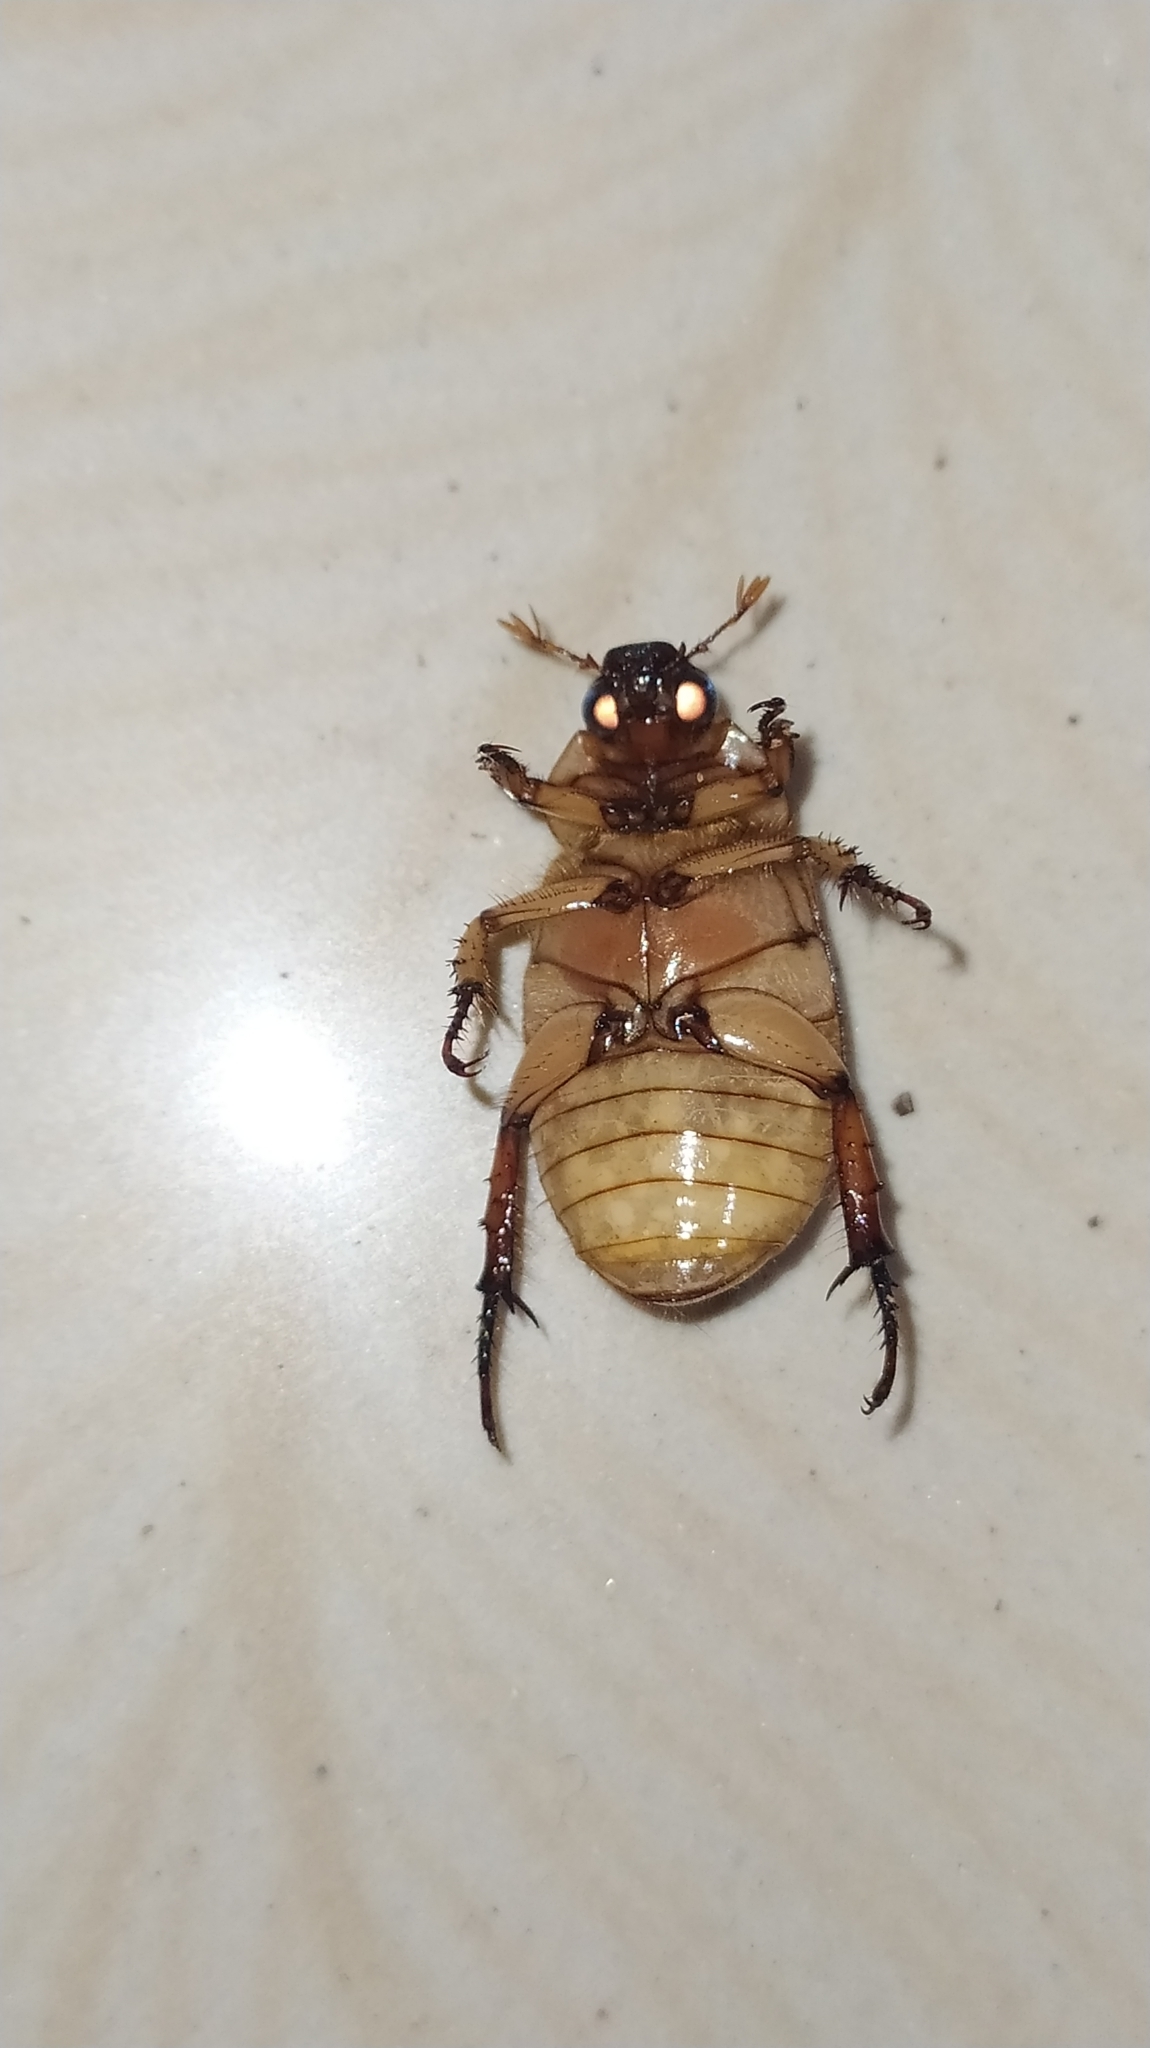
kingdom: Animalia
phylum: Arthropoda
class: Insecta
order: Coleoptera
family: Scarabaeidae
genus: Anomala
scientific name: Anomala varians
